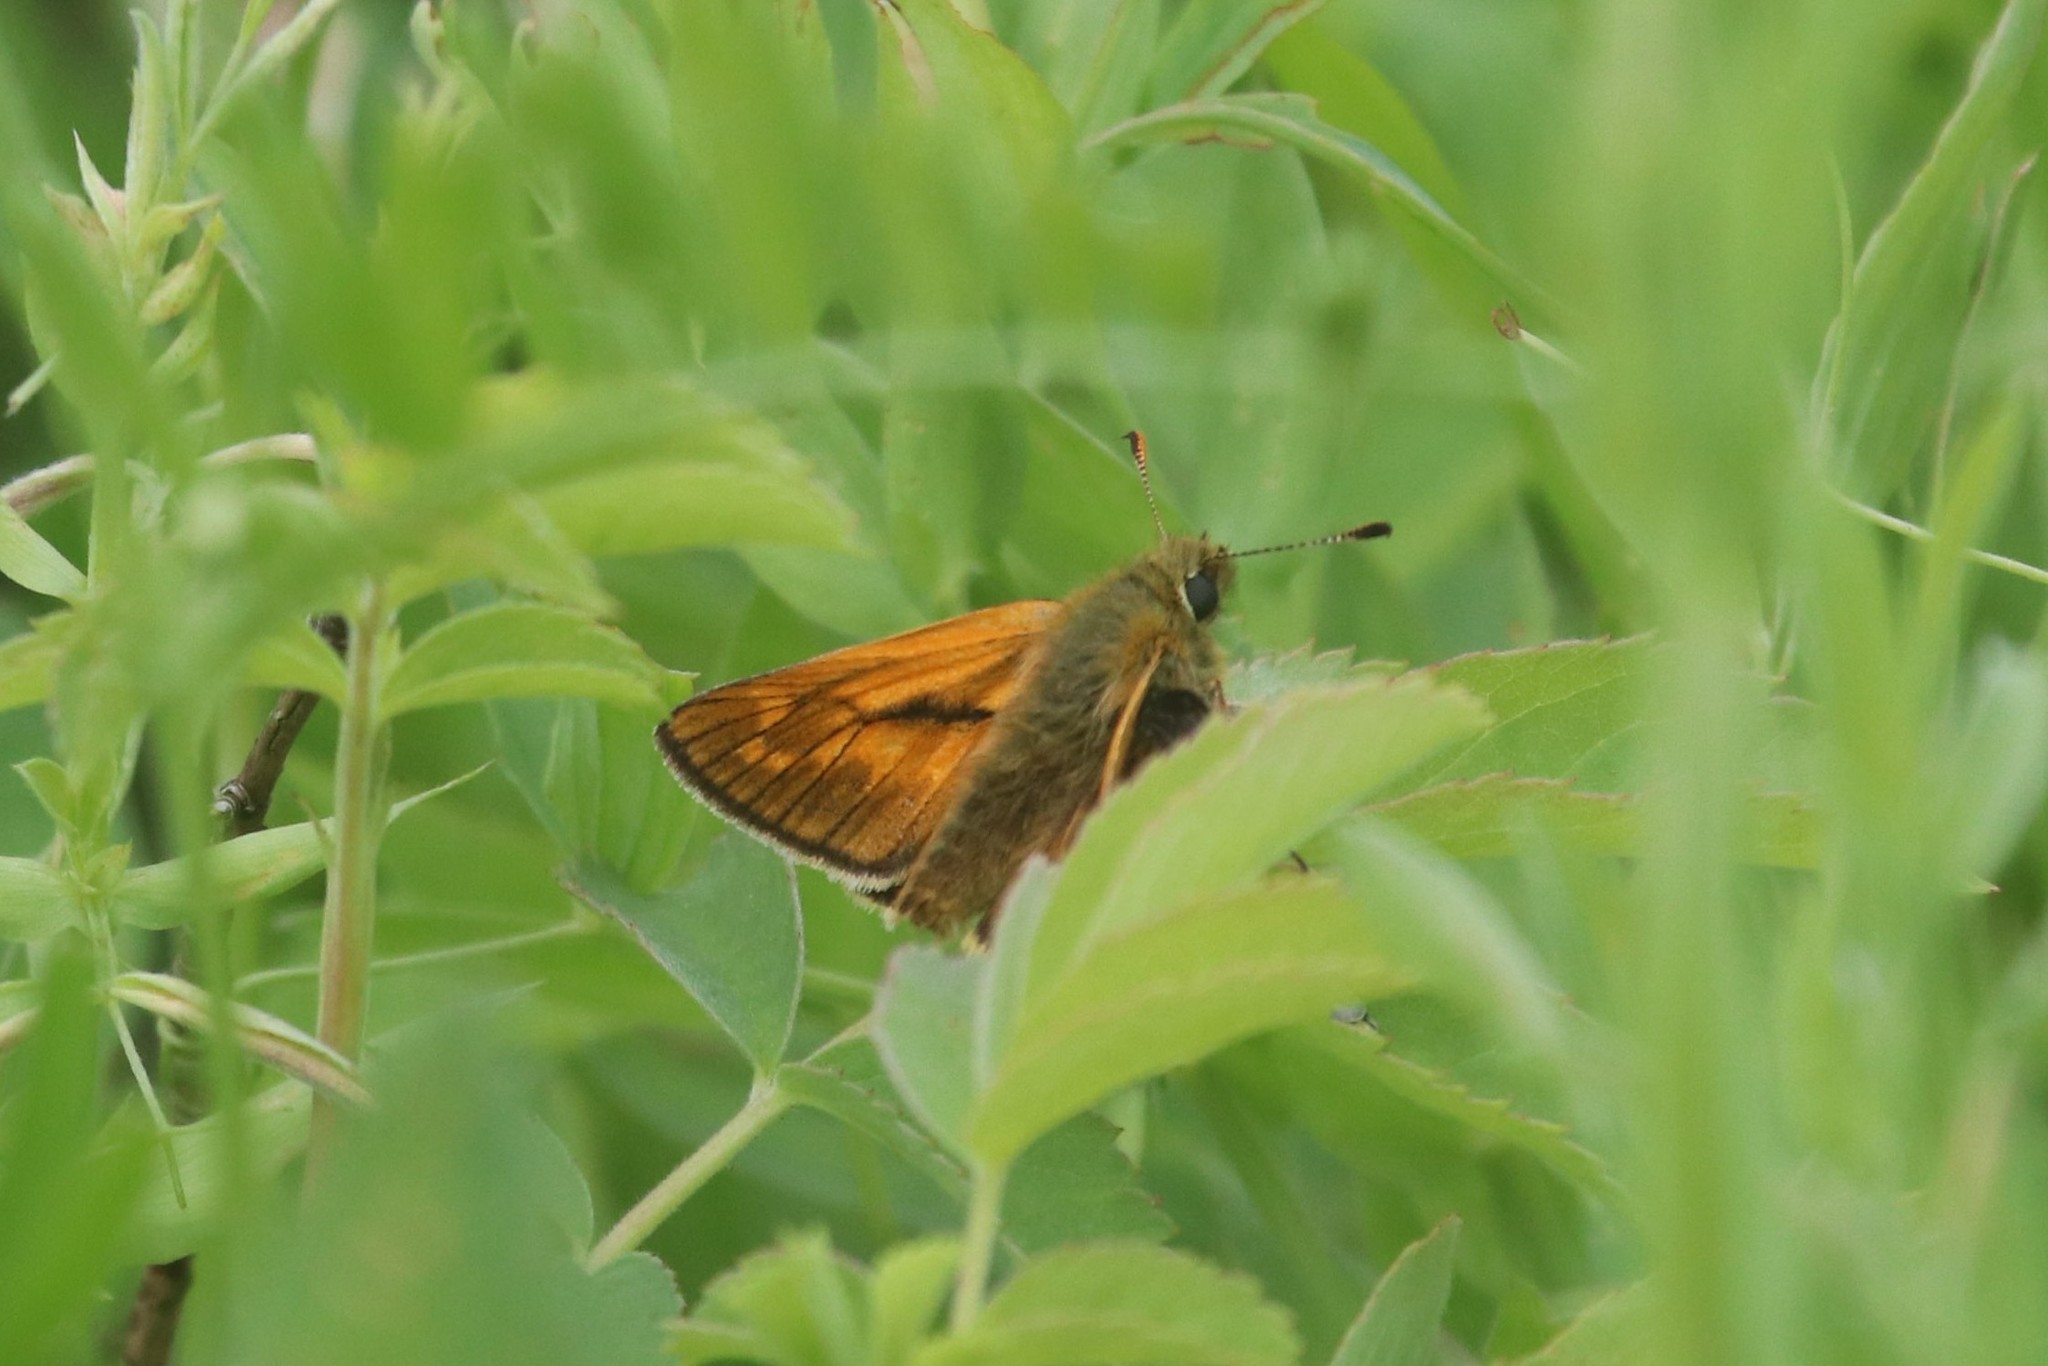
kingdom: Animalia
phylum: Arthropoda
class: Insecta
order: Lepidoptera
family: Hesperiidae
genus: Ochlodes
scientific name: Ochlodes venata
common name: Large skipper
